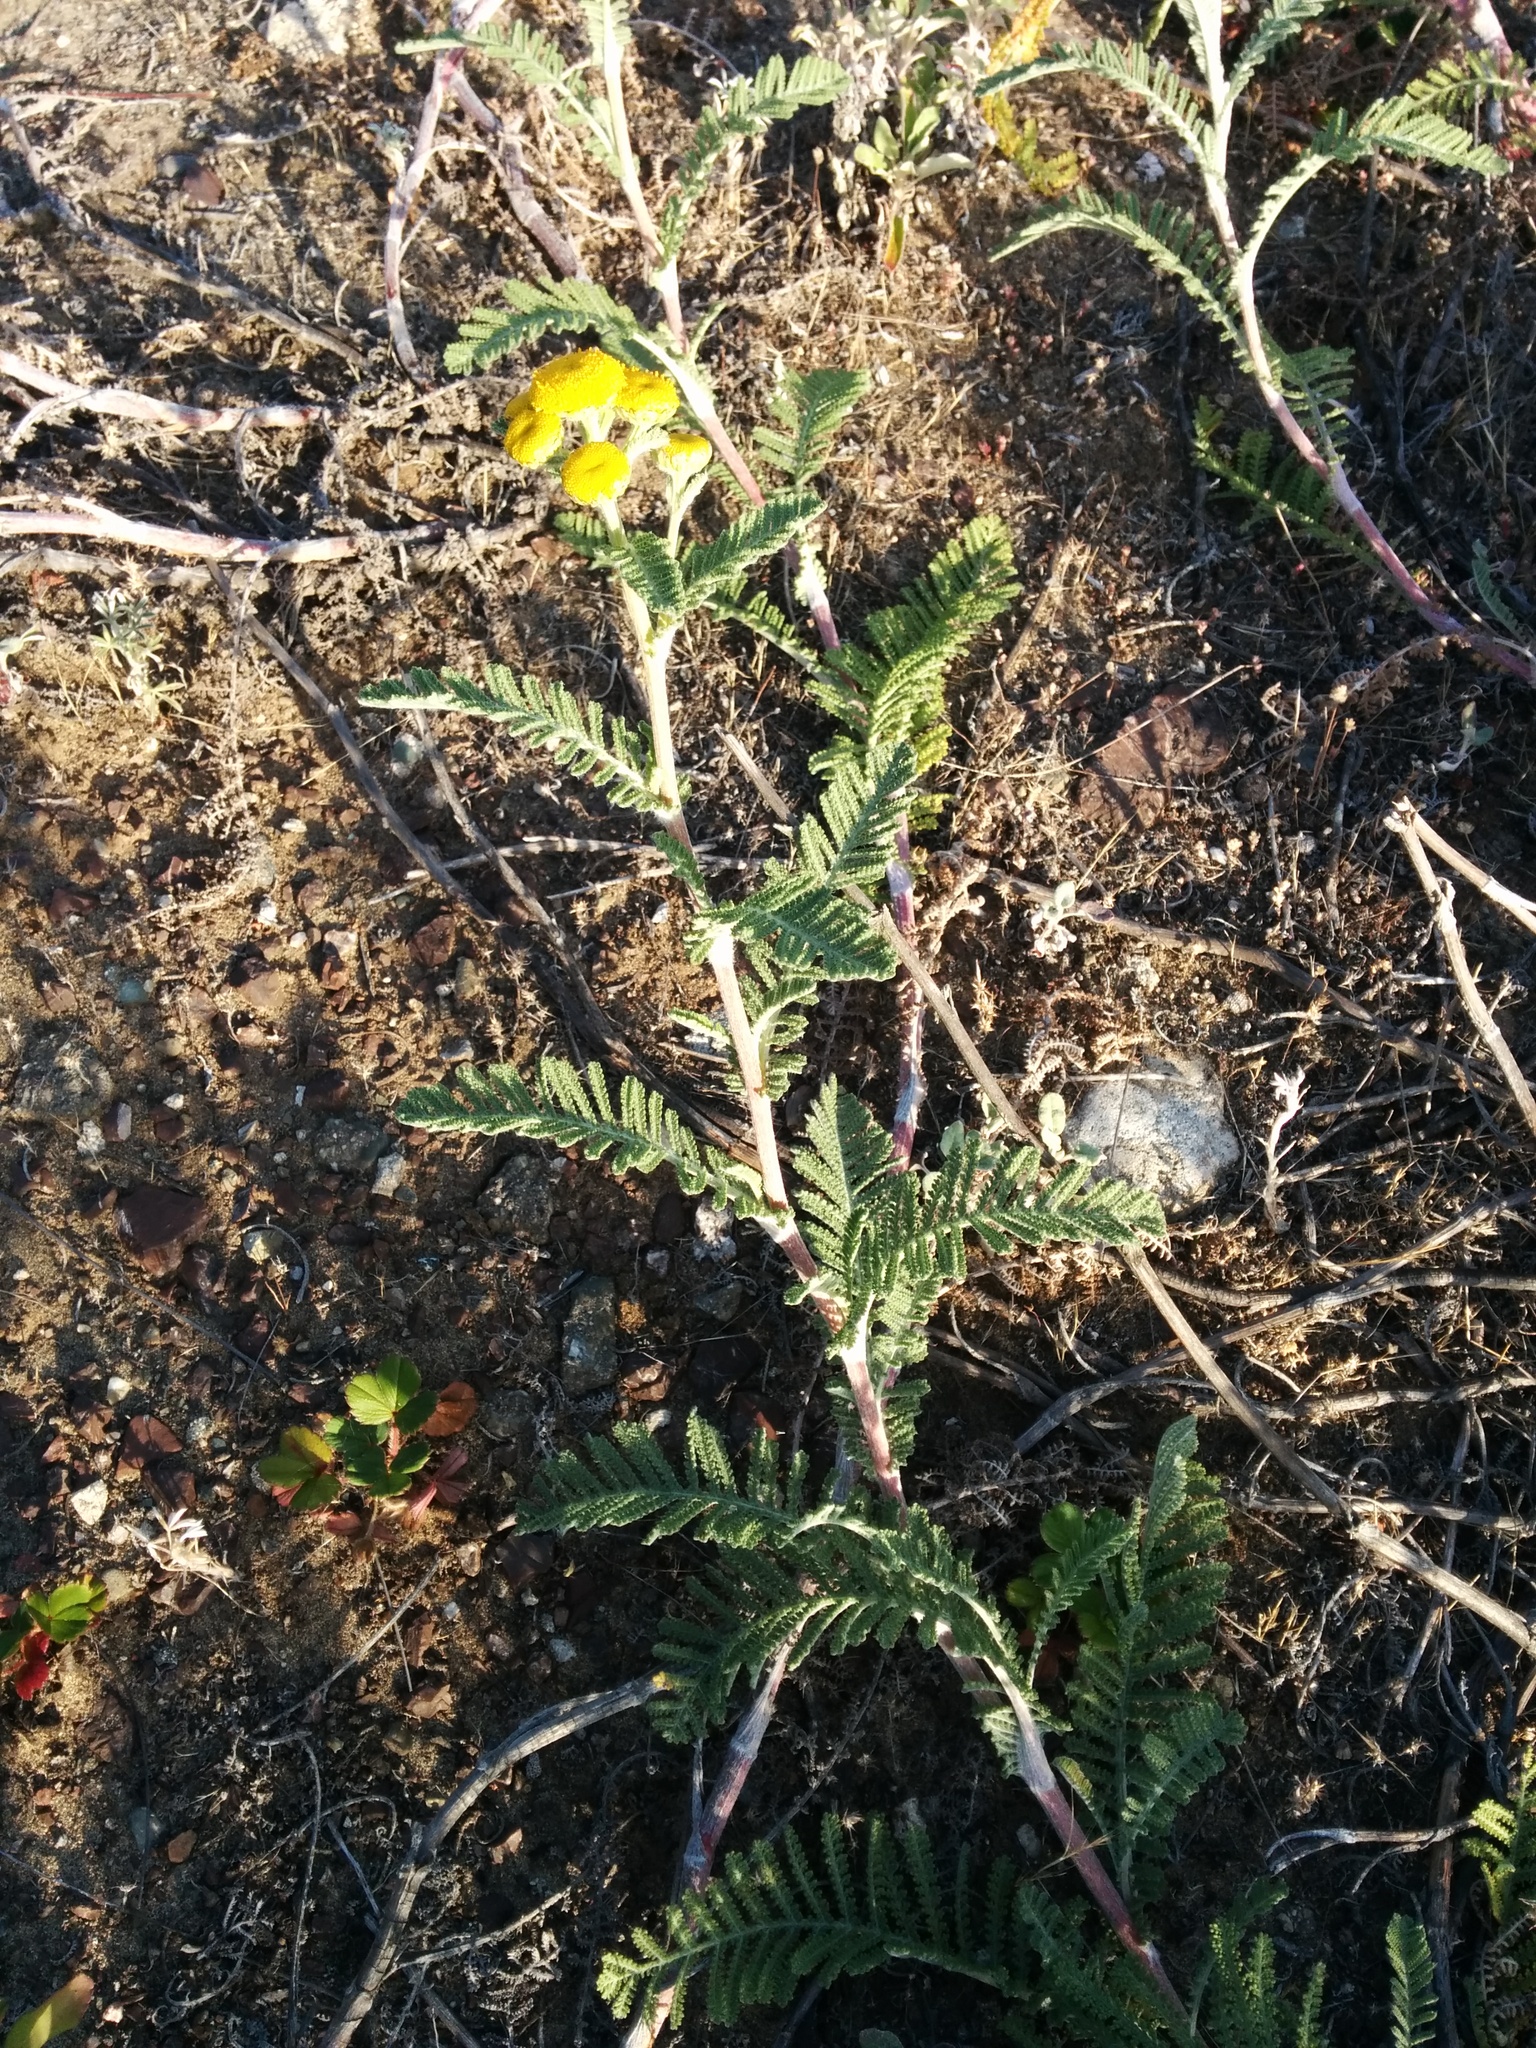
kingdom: Plantae
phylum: Tracheophyta
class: Magnoliopsida
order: Asterales
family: Asteraceae
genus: Tanacetum
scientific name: Tanacetum bipinnatum
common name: Dwarf tansy
